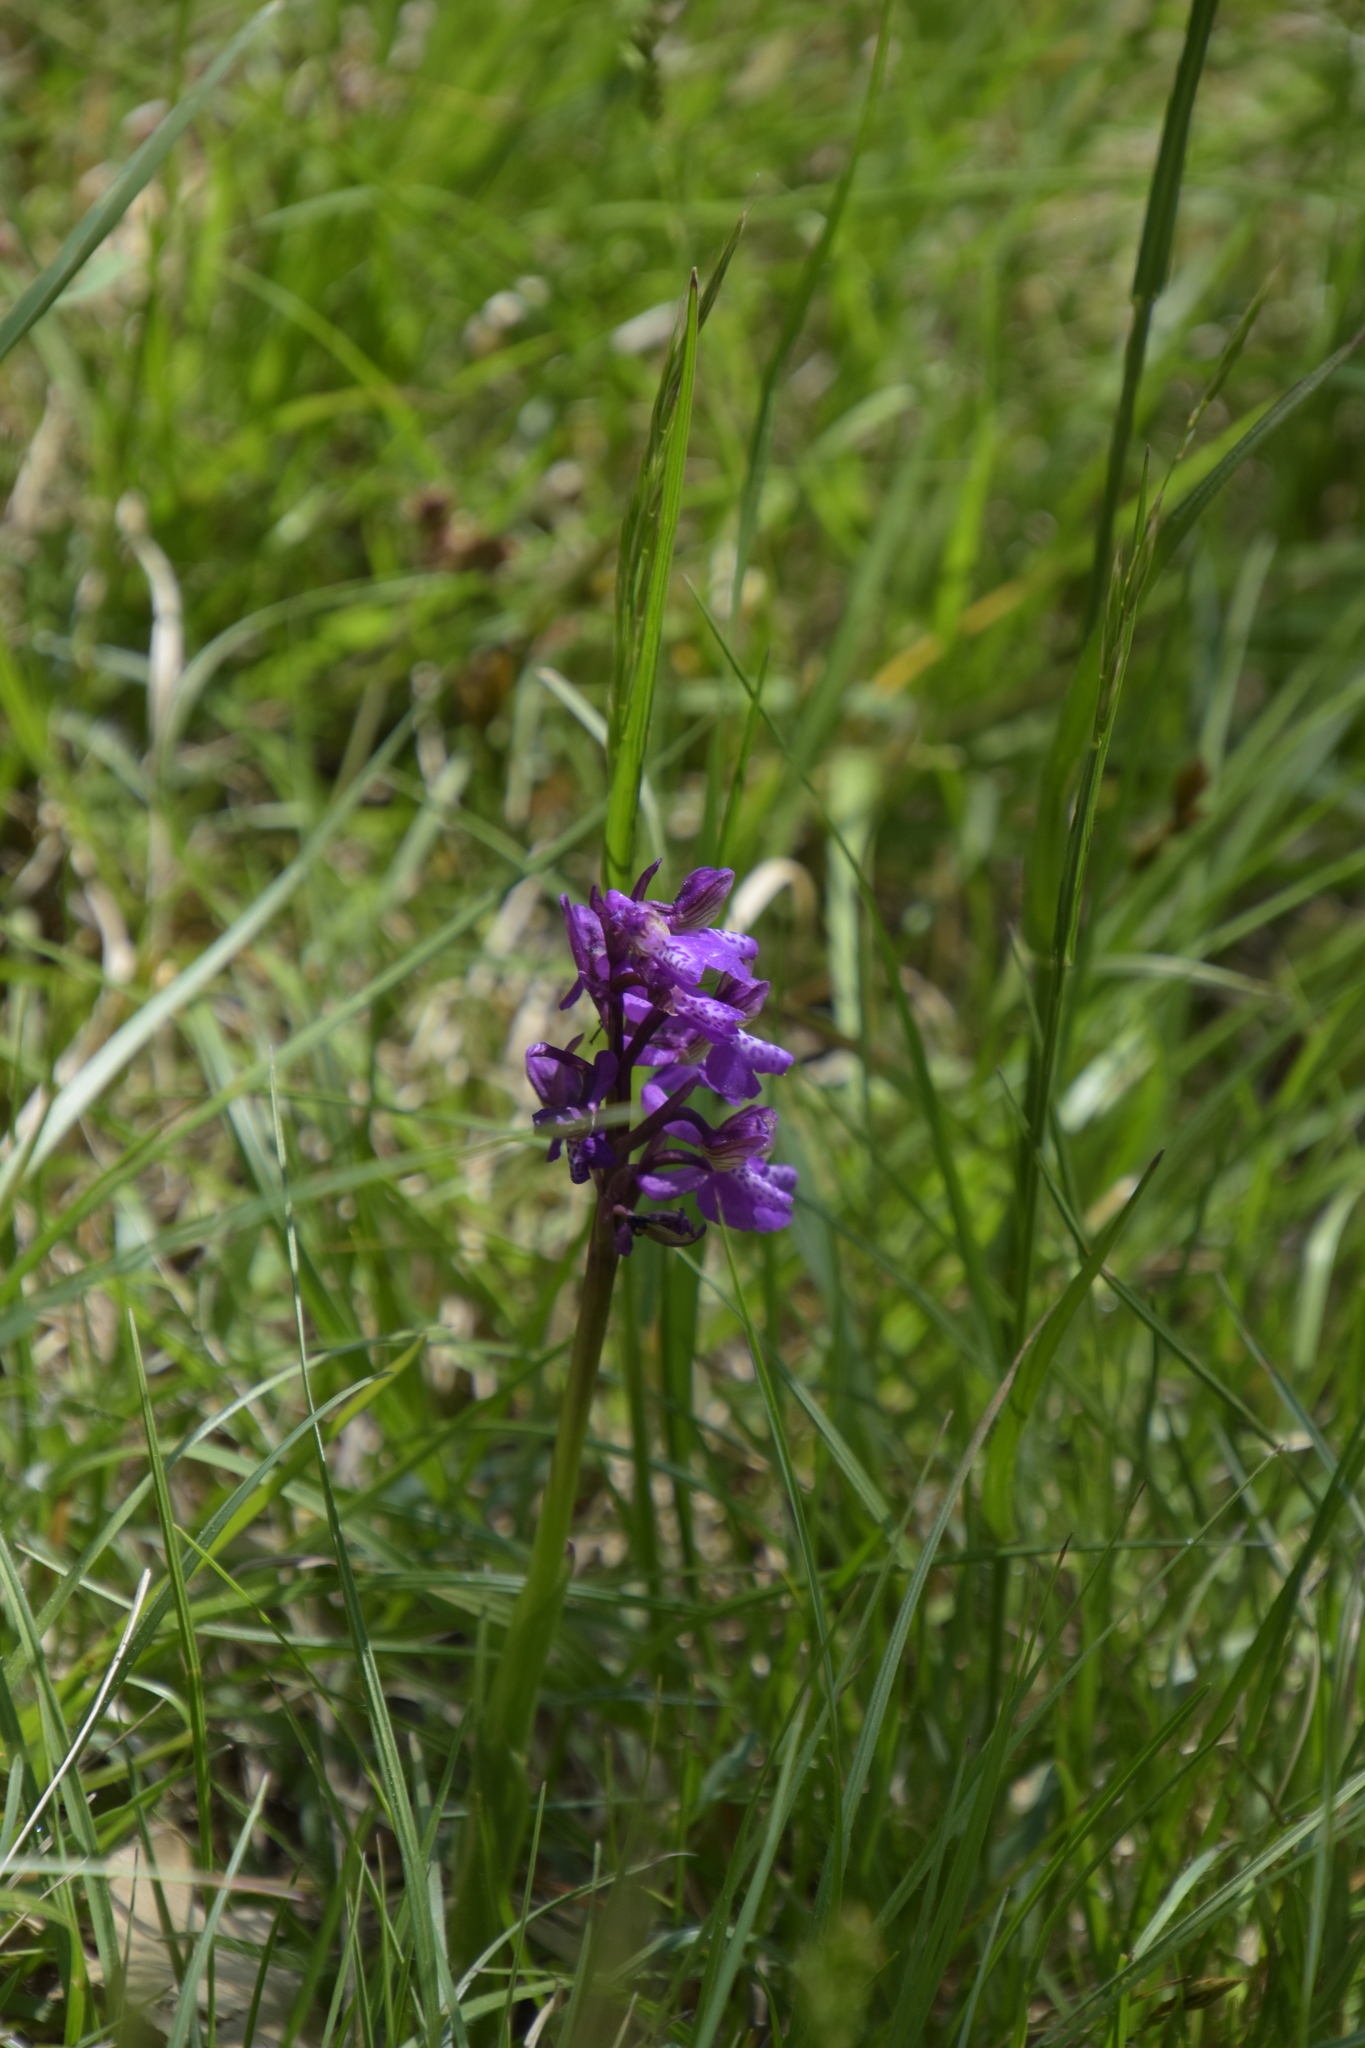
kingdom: Plantae
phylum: Tracheophyta
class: Liliopsida
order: Asparagales
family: Orchidaceae
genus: Anacamptis
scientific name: Anacamptis morio
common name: Green-winged orchid
